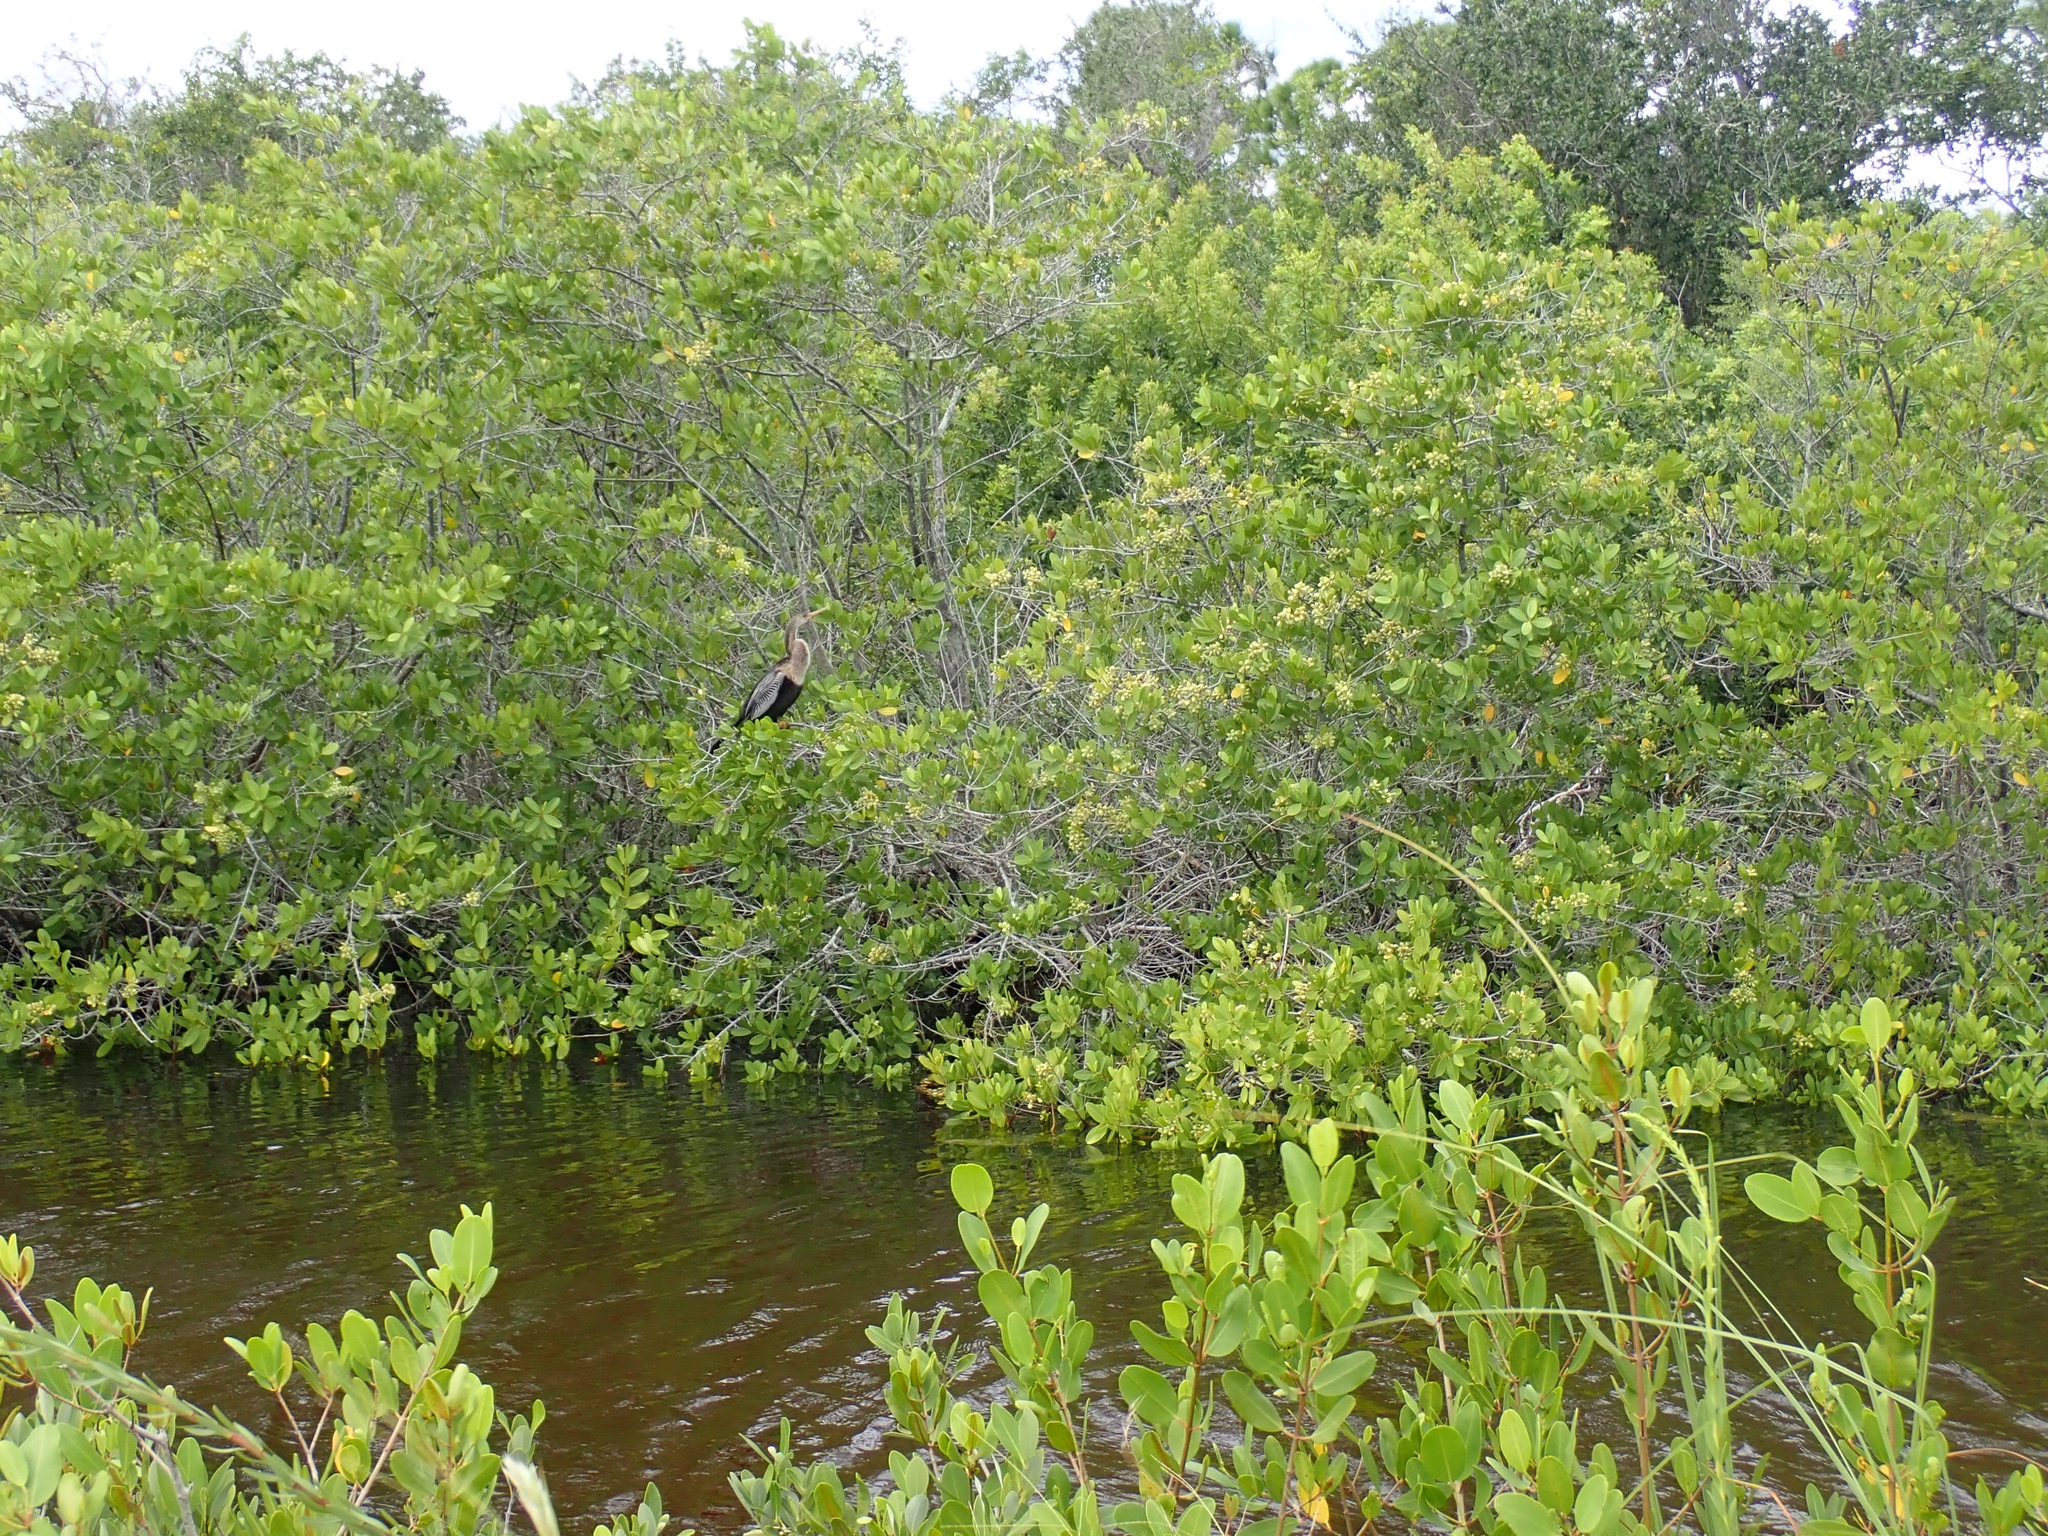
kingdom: Animalia
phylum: Chordata
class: Aves
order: Suliformes
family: Anhingidae
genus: Anhinga
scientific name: Anhinga anhinga
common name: Anhinga
